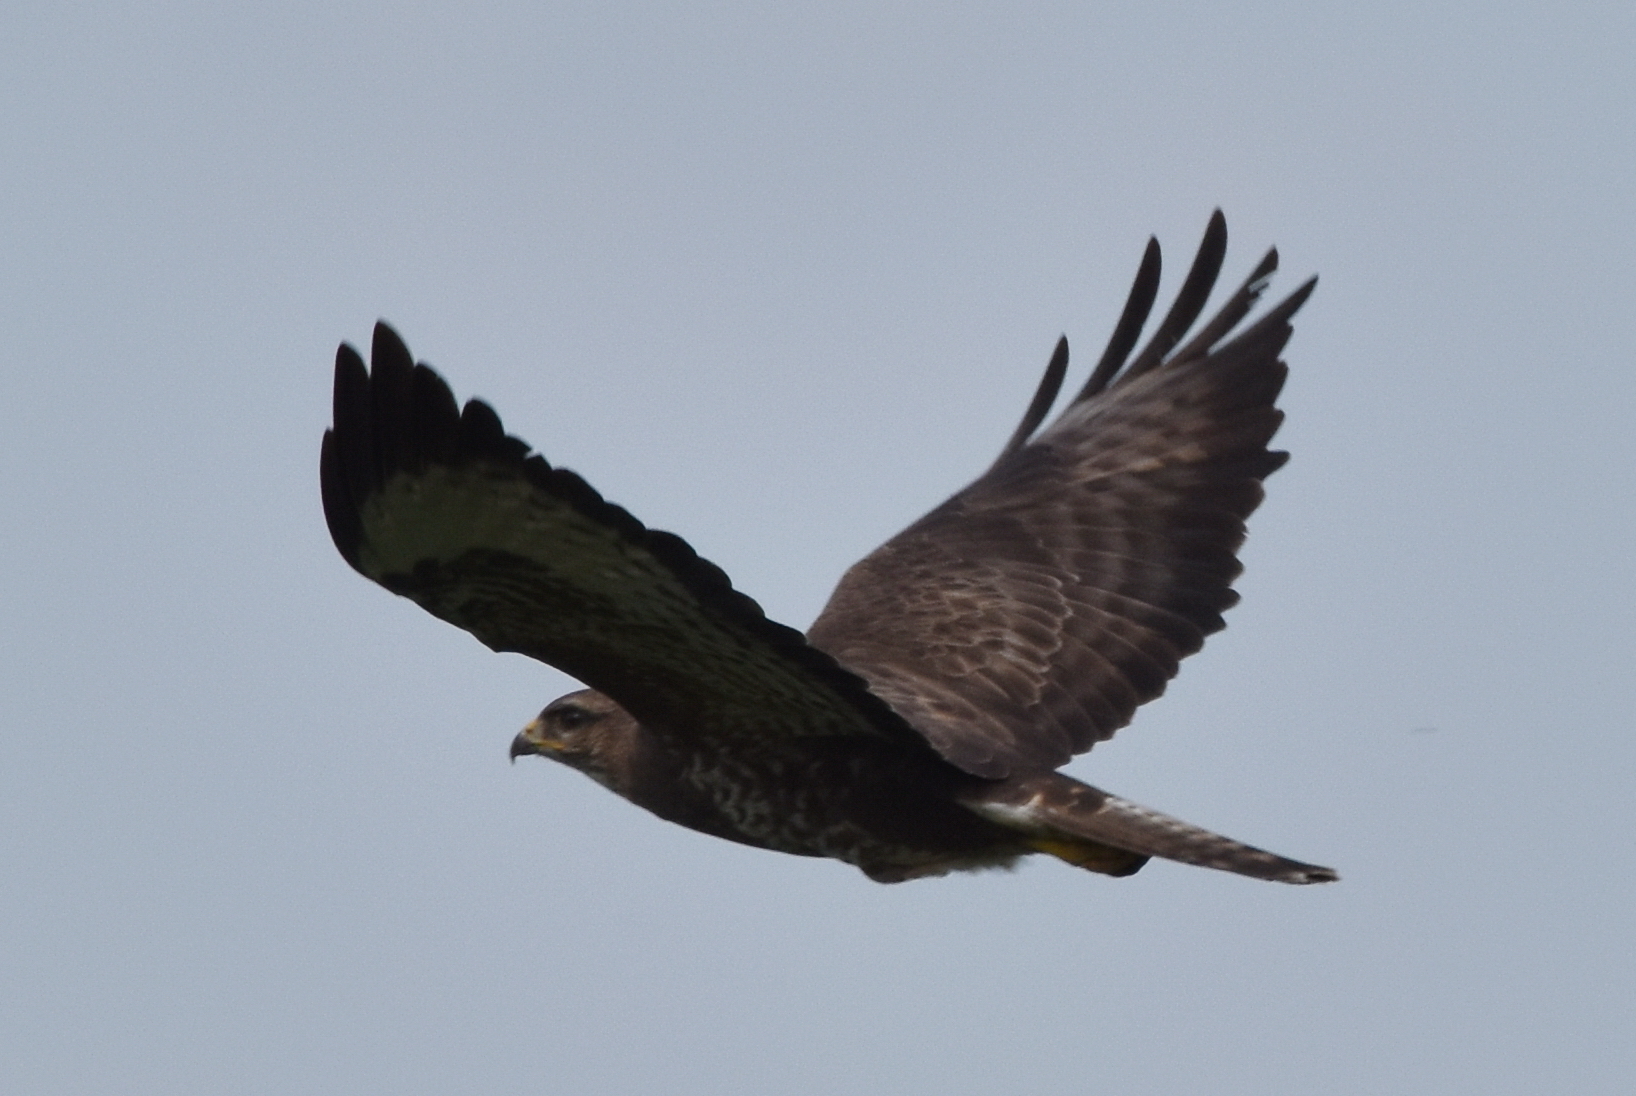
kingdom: Animalia
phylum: Chordata
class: Aves
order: Accipitriformes
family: Accipitridae
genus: Buteo
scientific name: Buteo buteo
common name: Common buzzard
